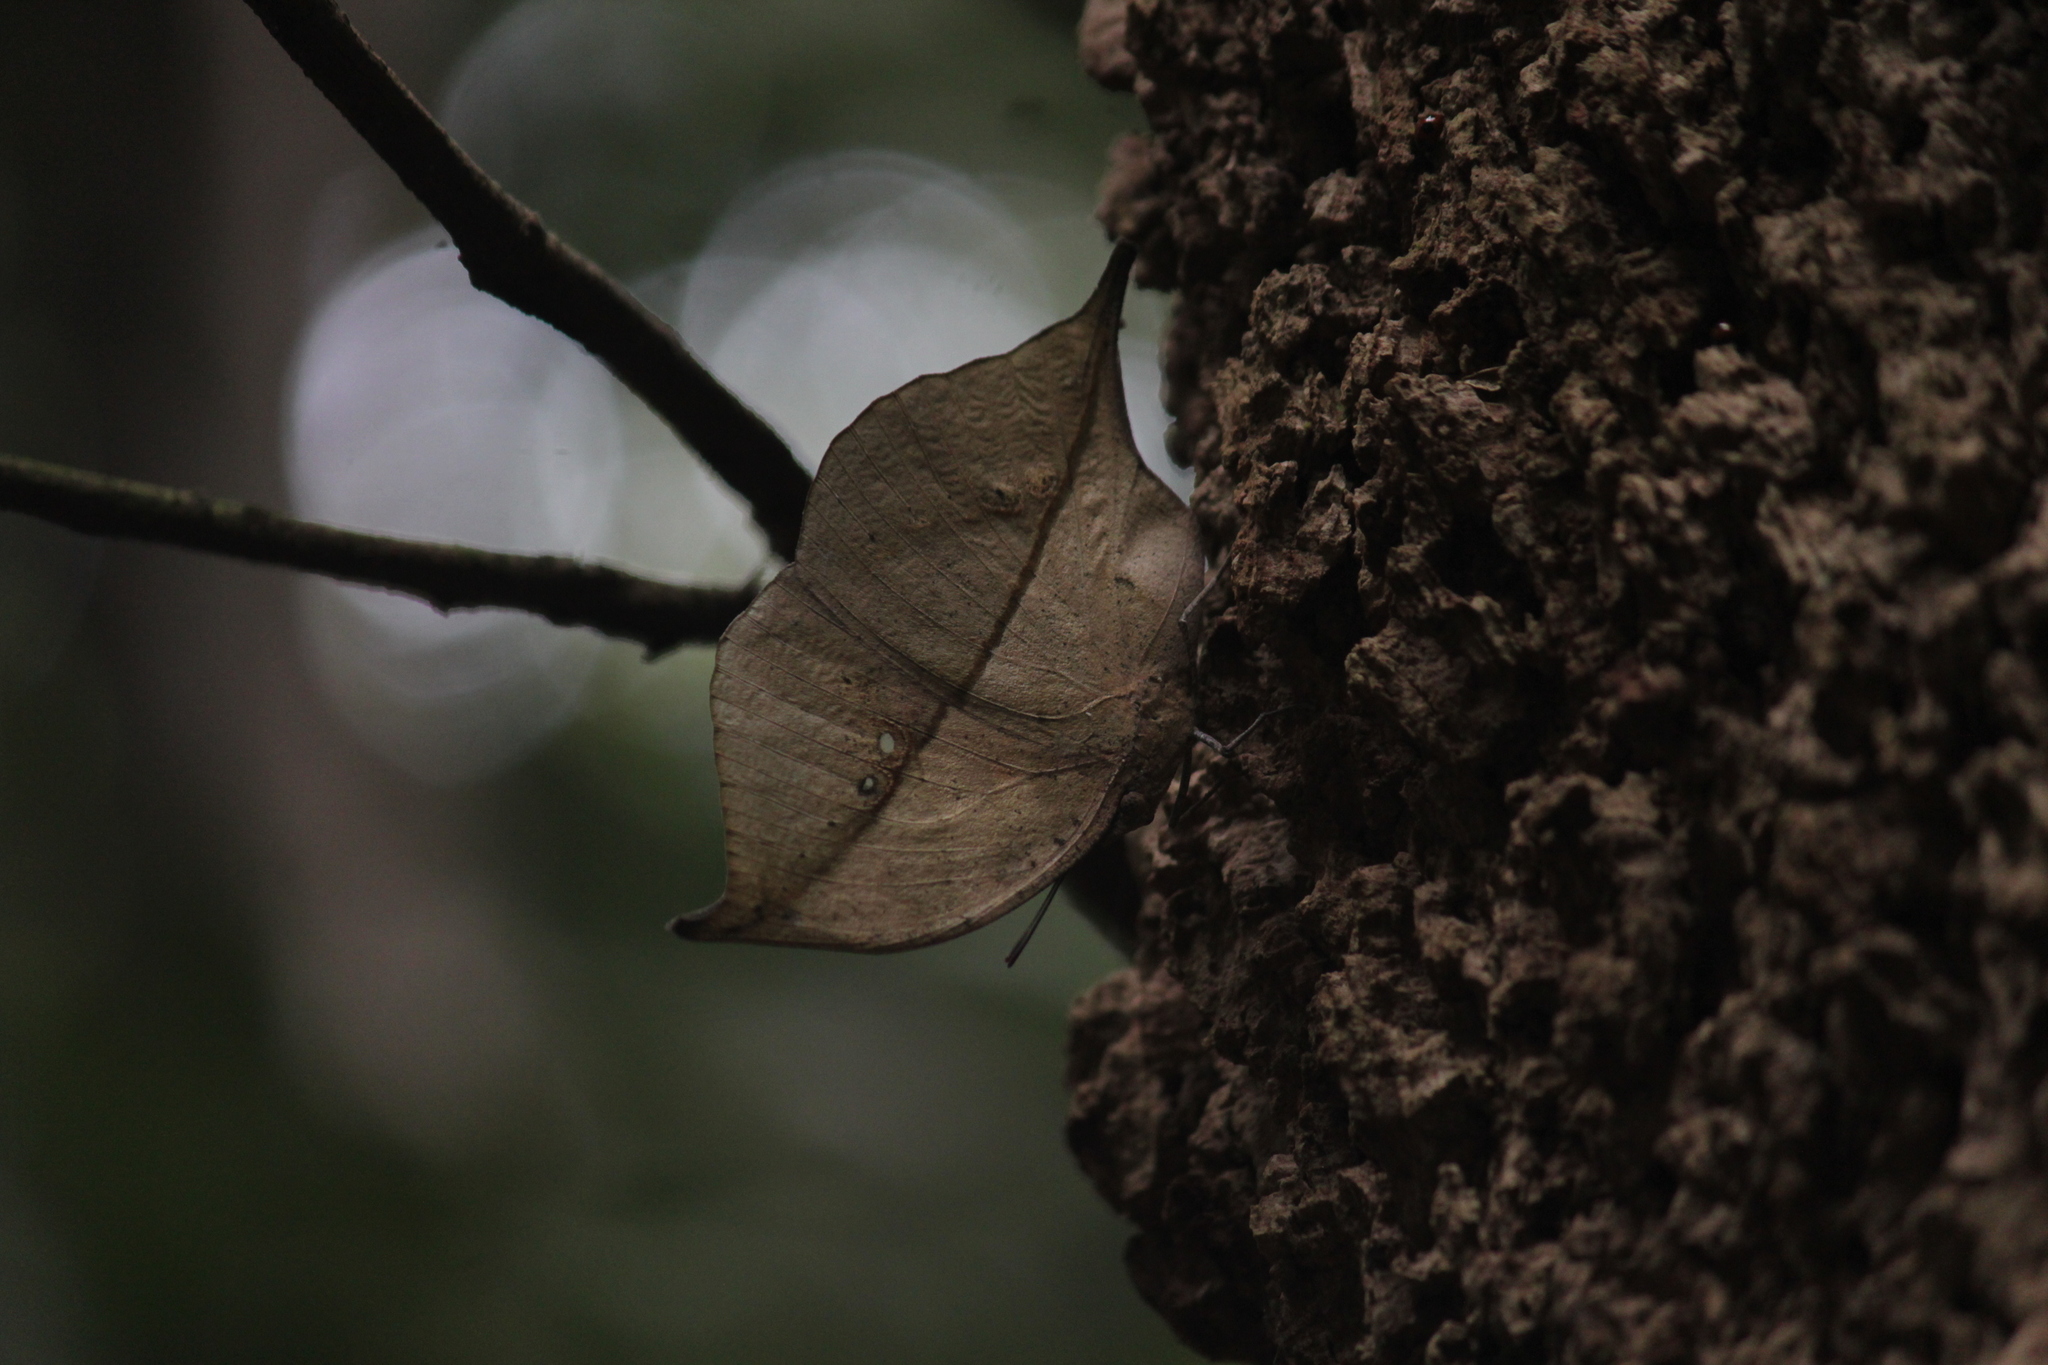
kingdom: Animalia
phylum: Arthropoda
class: Insecta
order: Lepidoptera
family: Nymphalidae
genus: Kallima
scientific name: Kallima horsfieldii
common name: Sahyadri blue oakleaf
